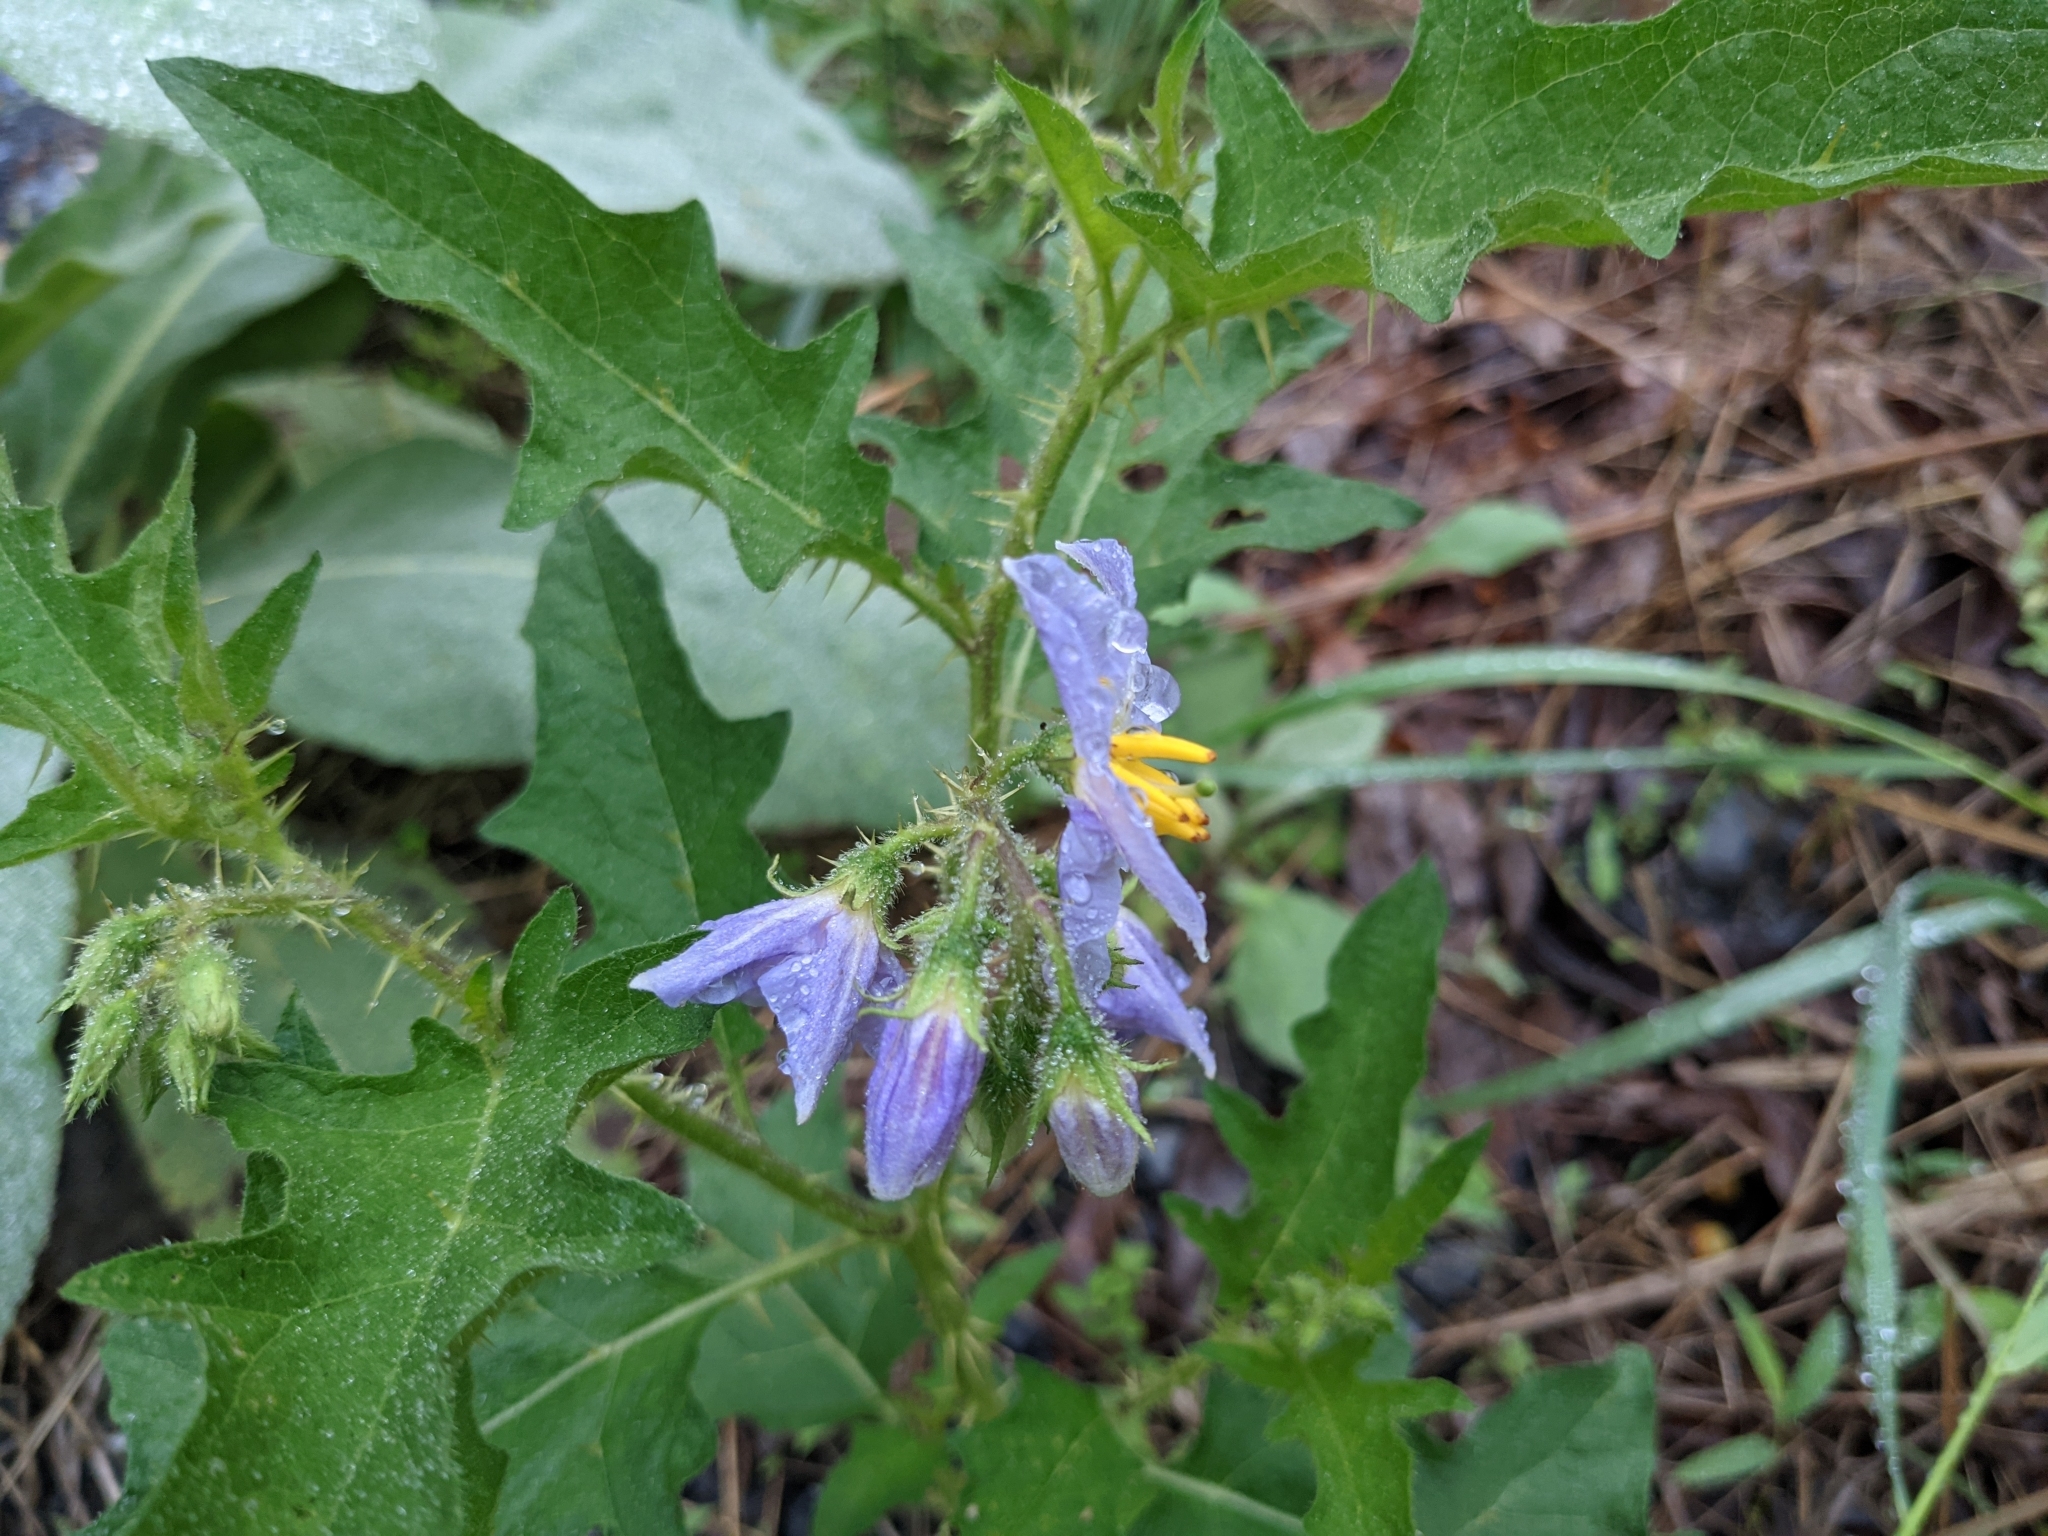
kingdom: Plantae
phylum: Tracheophyta
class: Magnoliopsida
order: Solanales
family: Solanaceae
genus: Solanum
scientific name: Solanum carolinense
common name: Horse-nettle
